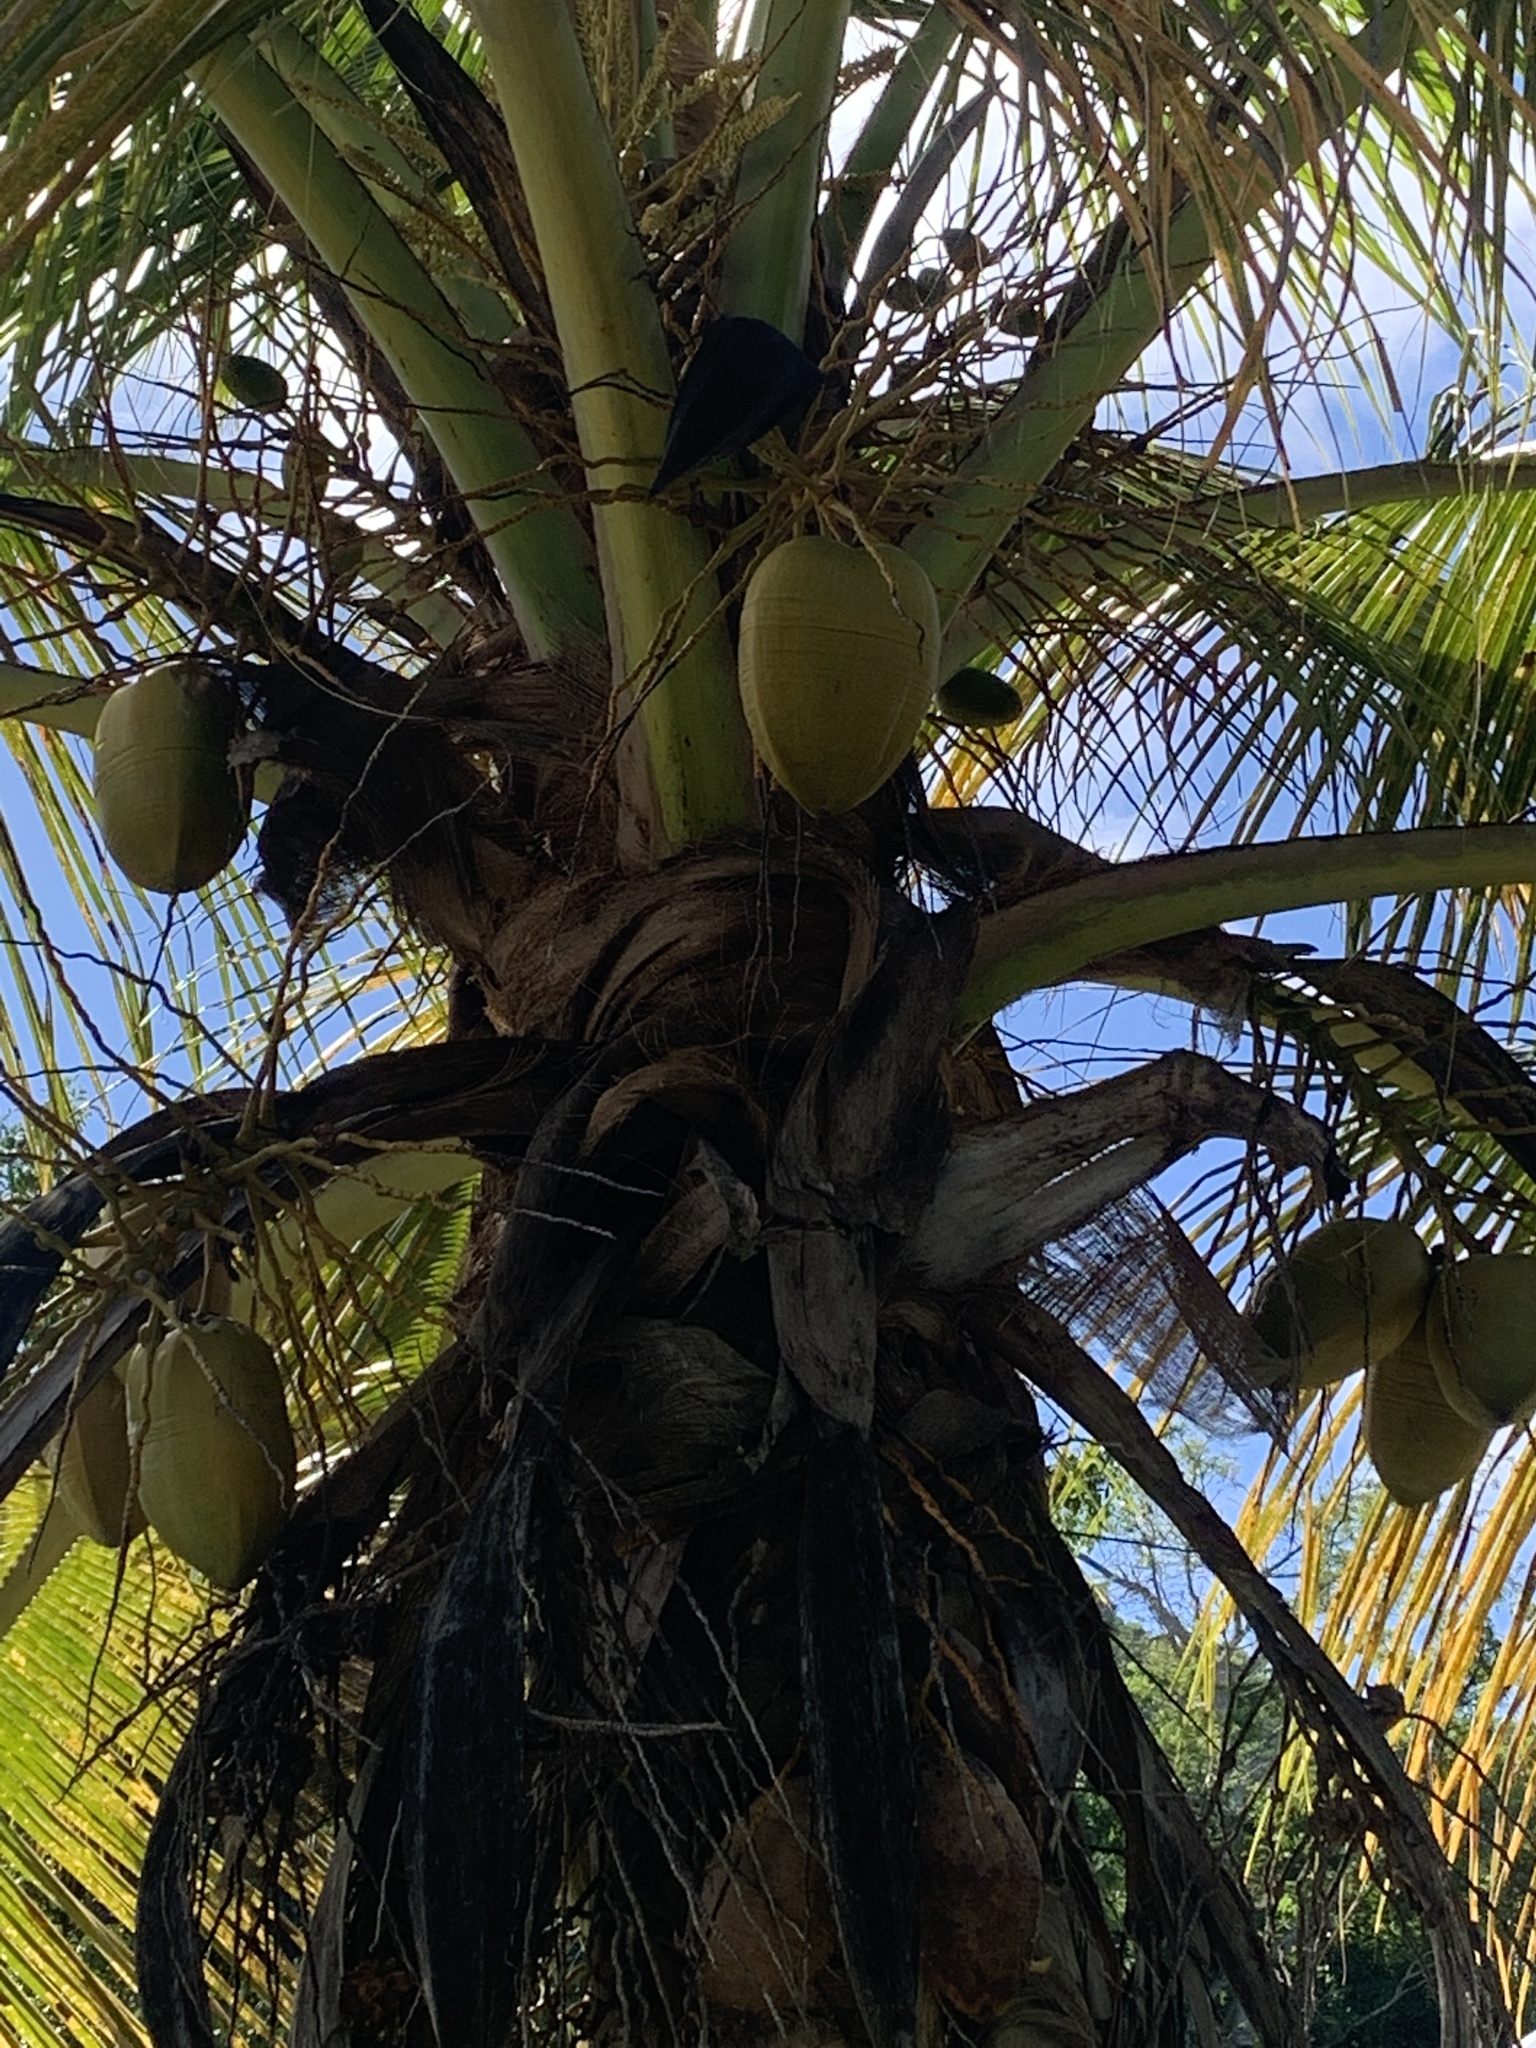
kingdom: Plantae
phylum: Tracheophyta
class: Liliopsida
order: Arecales
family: Arecaceae
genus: Cocos
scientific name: Cocos nucifera
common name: Coconut palm
